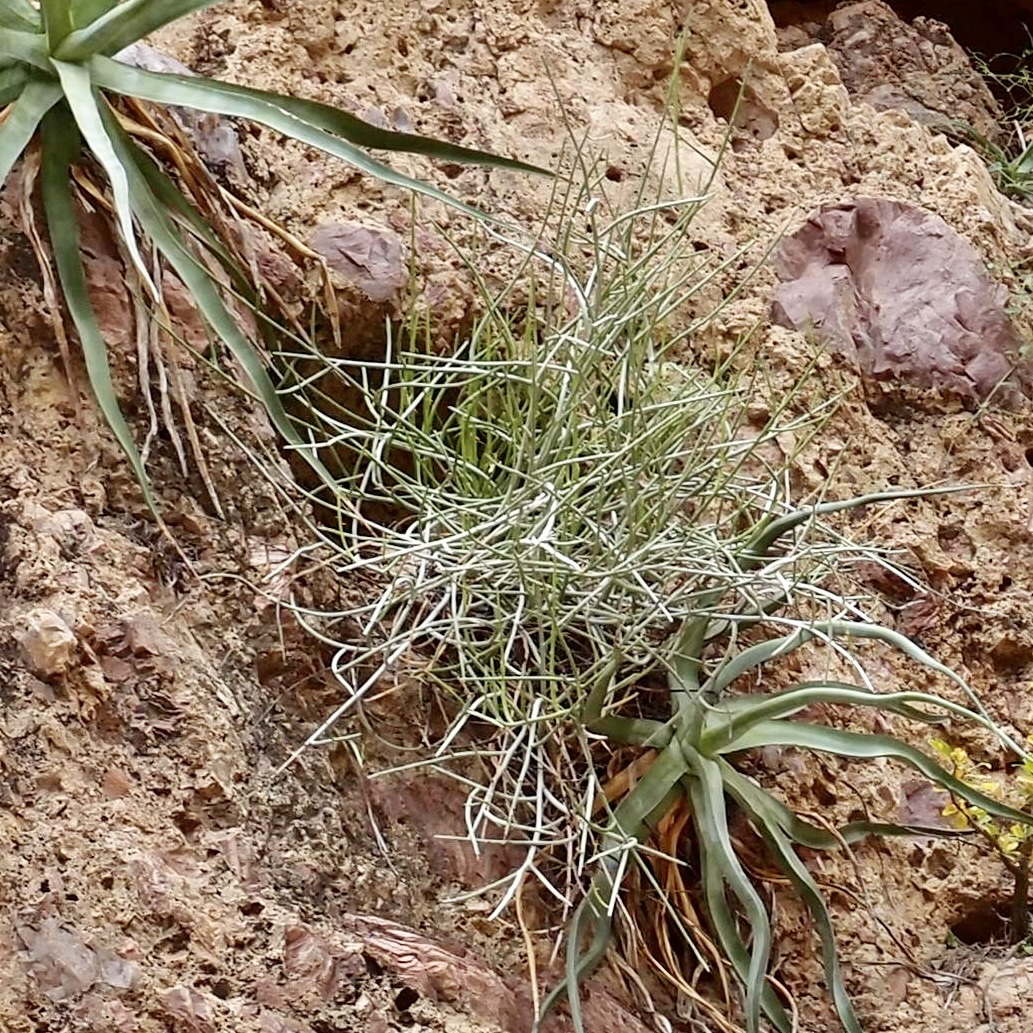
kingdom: Plantae
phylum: Tracheophyta
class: Magnoliopsida
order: Malpighiales
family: Euphorbiaceae
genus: Euphorbia
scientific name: Euphorbia ceroderma
